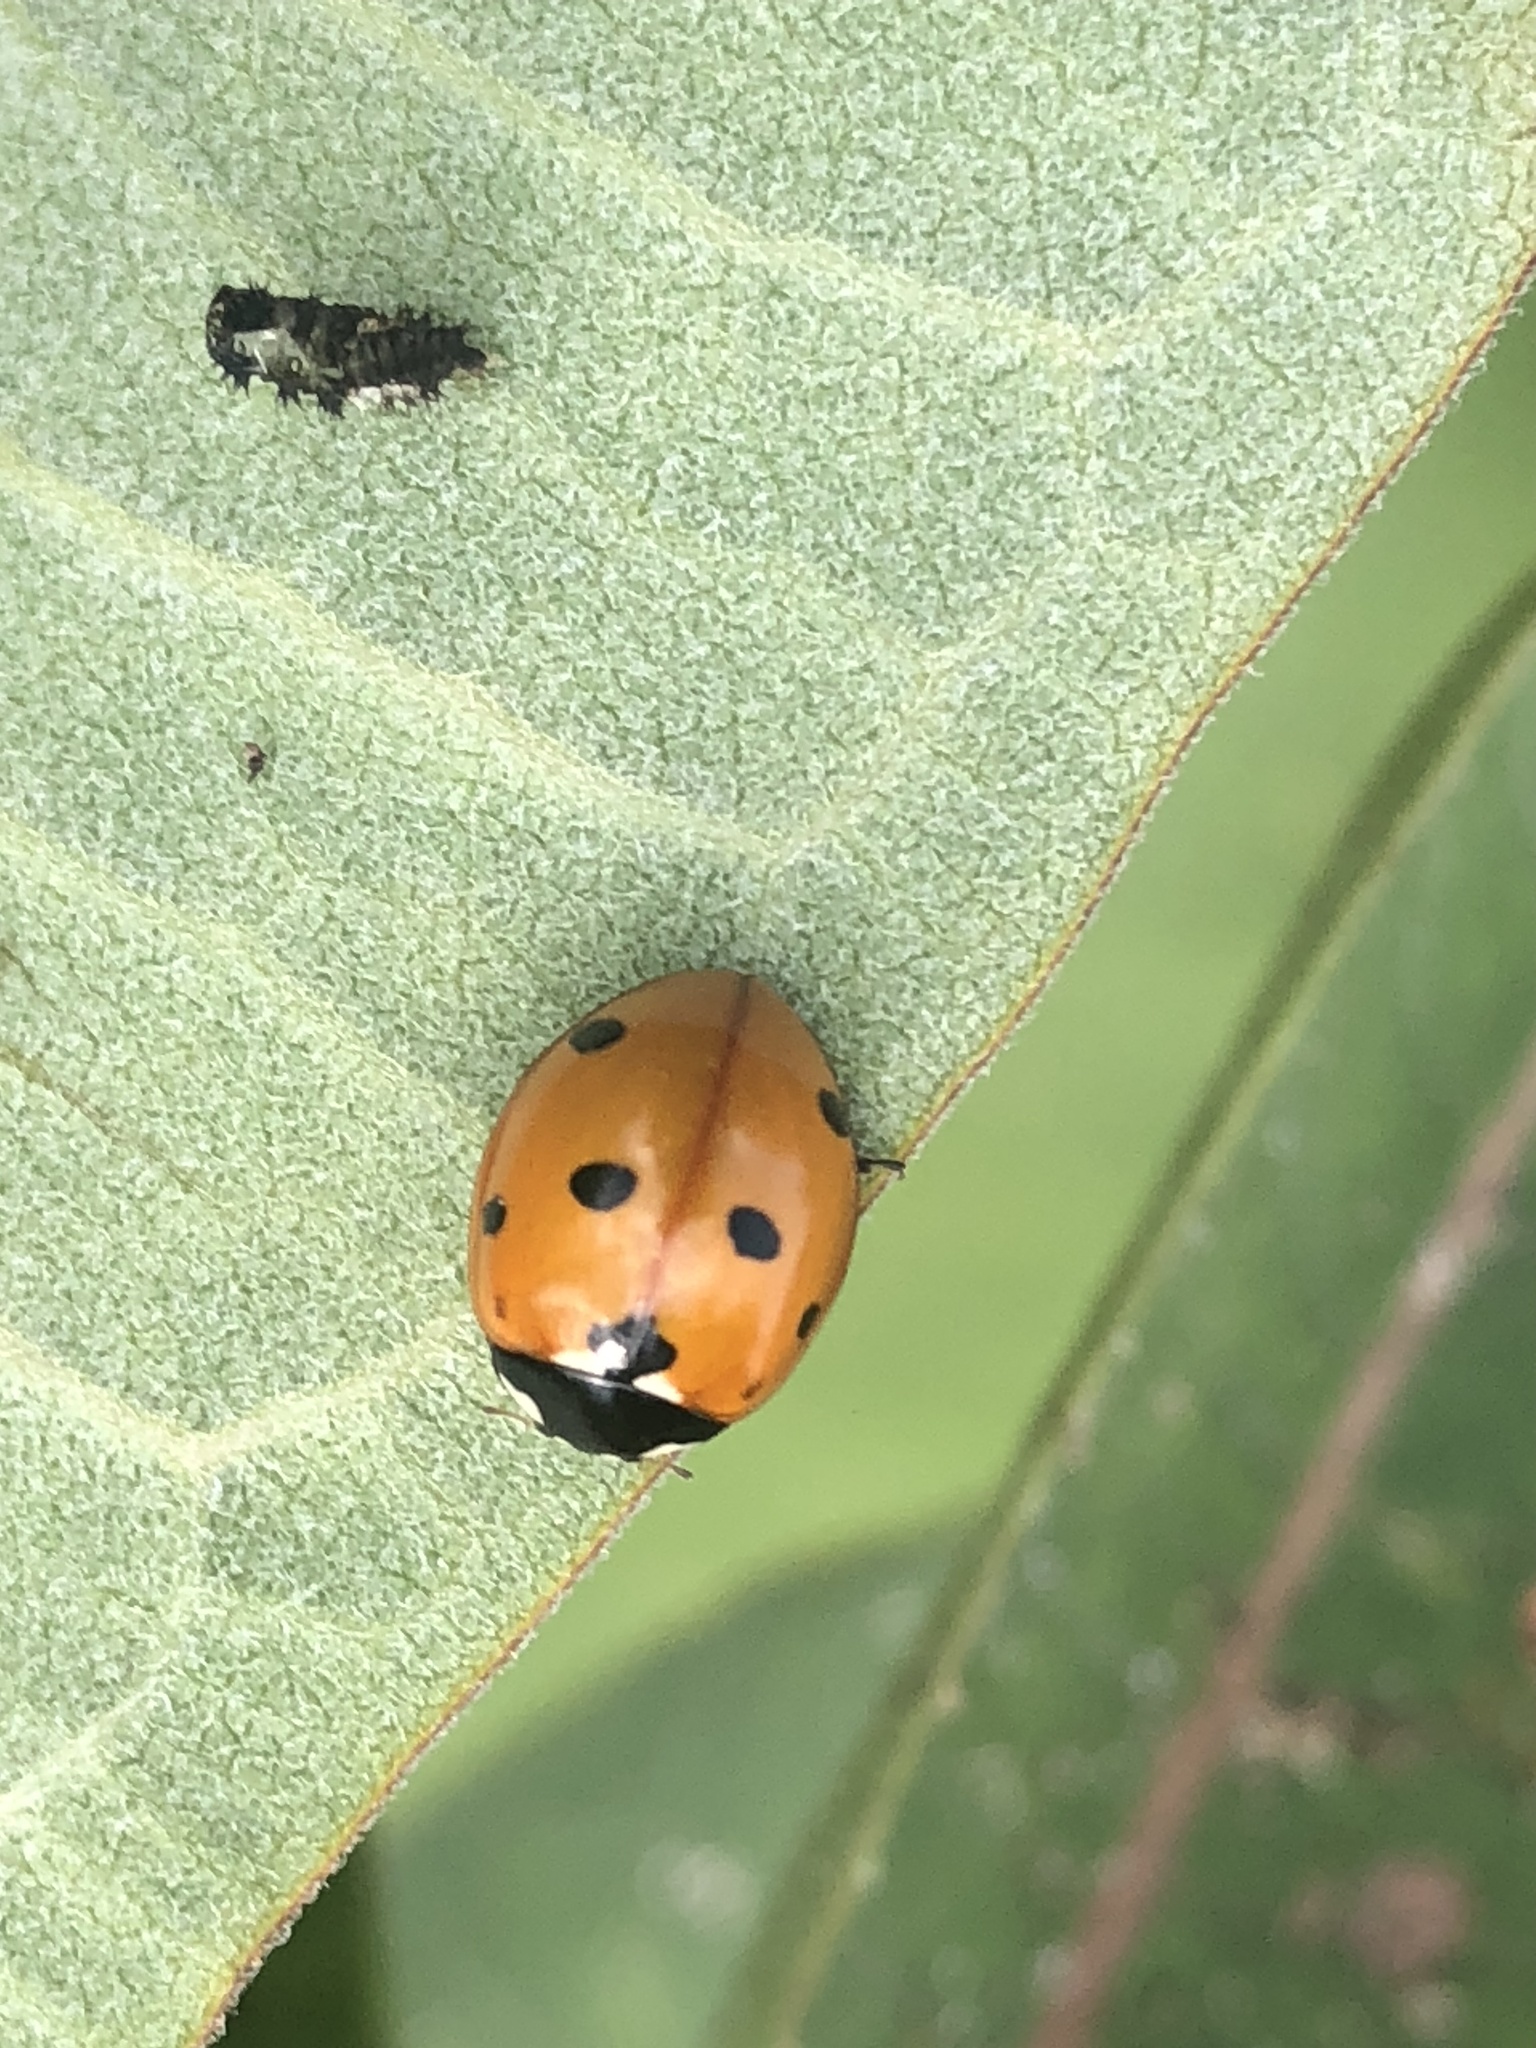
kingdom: Animalia
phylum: Arthropoda
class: Insecta
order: Coleoptera
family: Coccinellidae
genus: Coccinella
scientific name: Coccinella septempunctata
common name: Sevenspotted lady beetle
